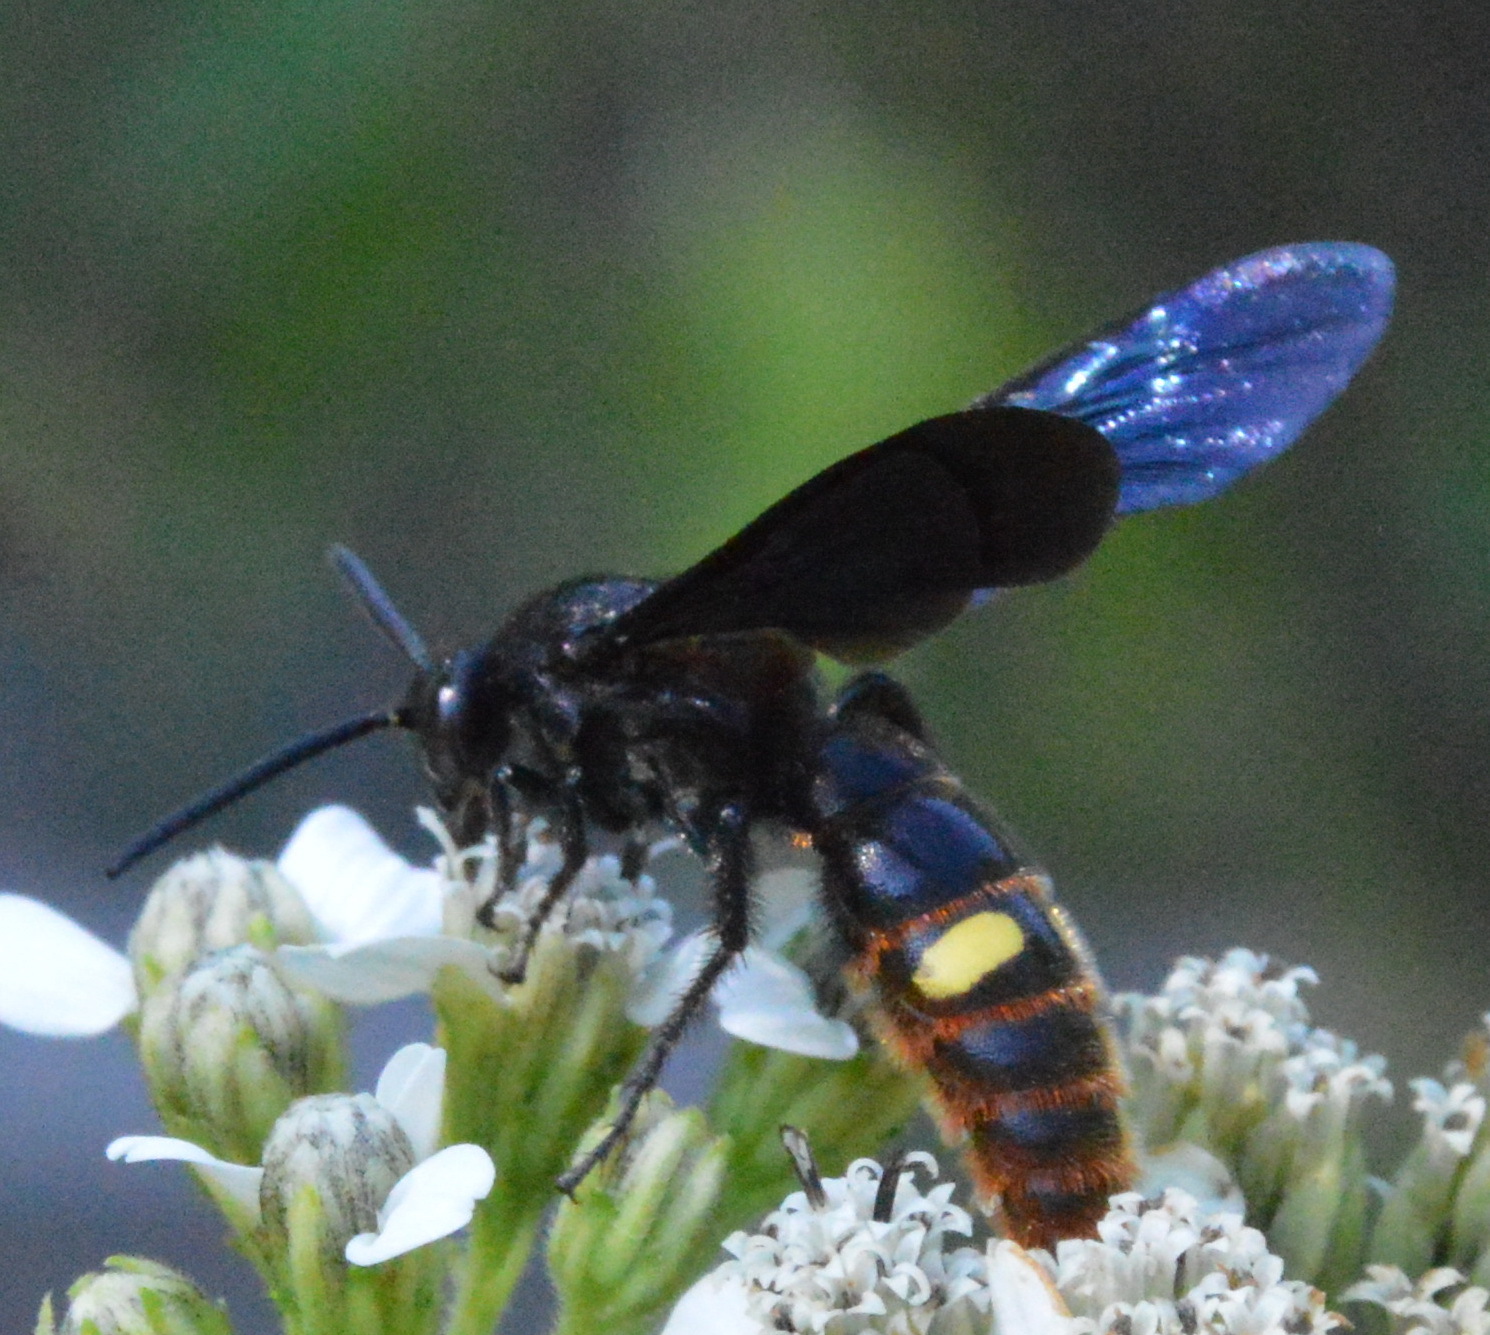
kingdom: Animalia
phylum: Arthropoda
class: Insecta
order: Hymenoptera
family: Scoliidae
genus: Scolia
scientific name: Scolia dubia
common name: Blue-winged scoliid wasp
